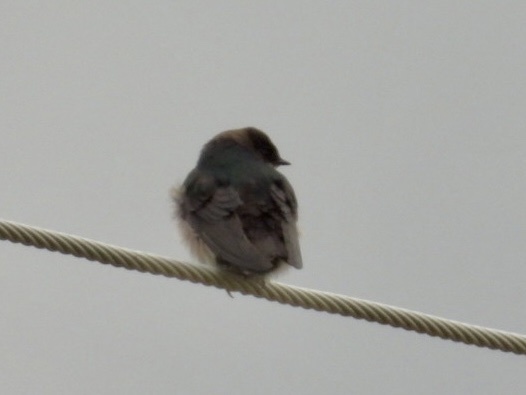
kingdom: Animalia
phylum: Chordata
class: Aves
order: Passeriformes
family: Hirundinidae
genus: Petrochelidon
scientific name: Petrochelidon pyrrhonota
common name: American cliff swallow
